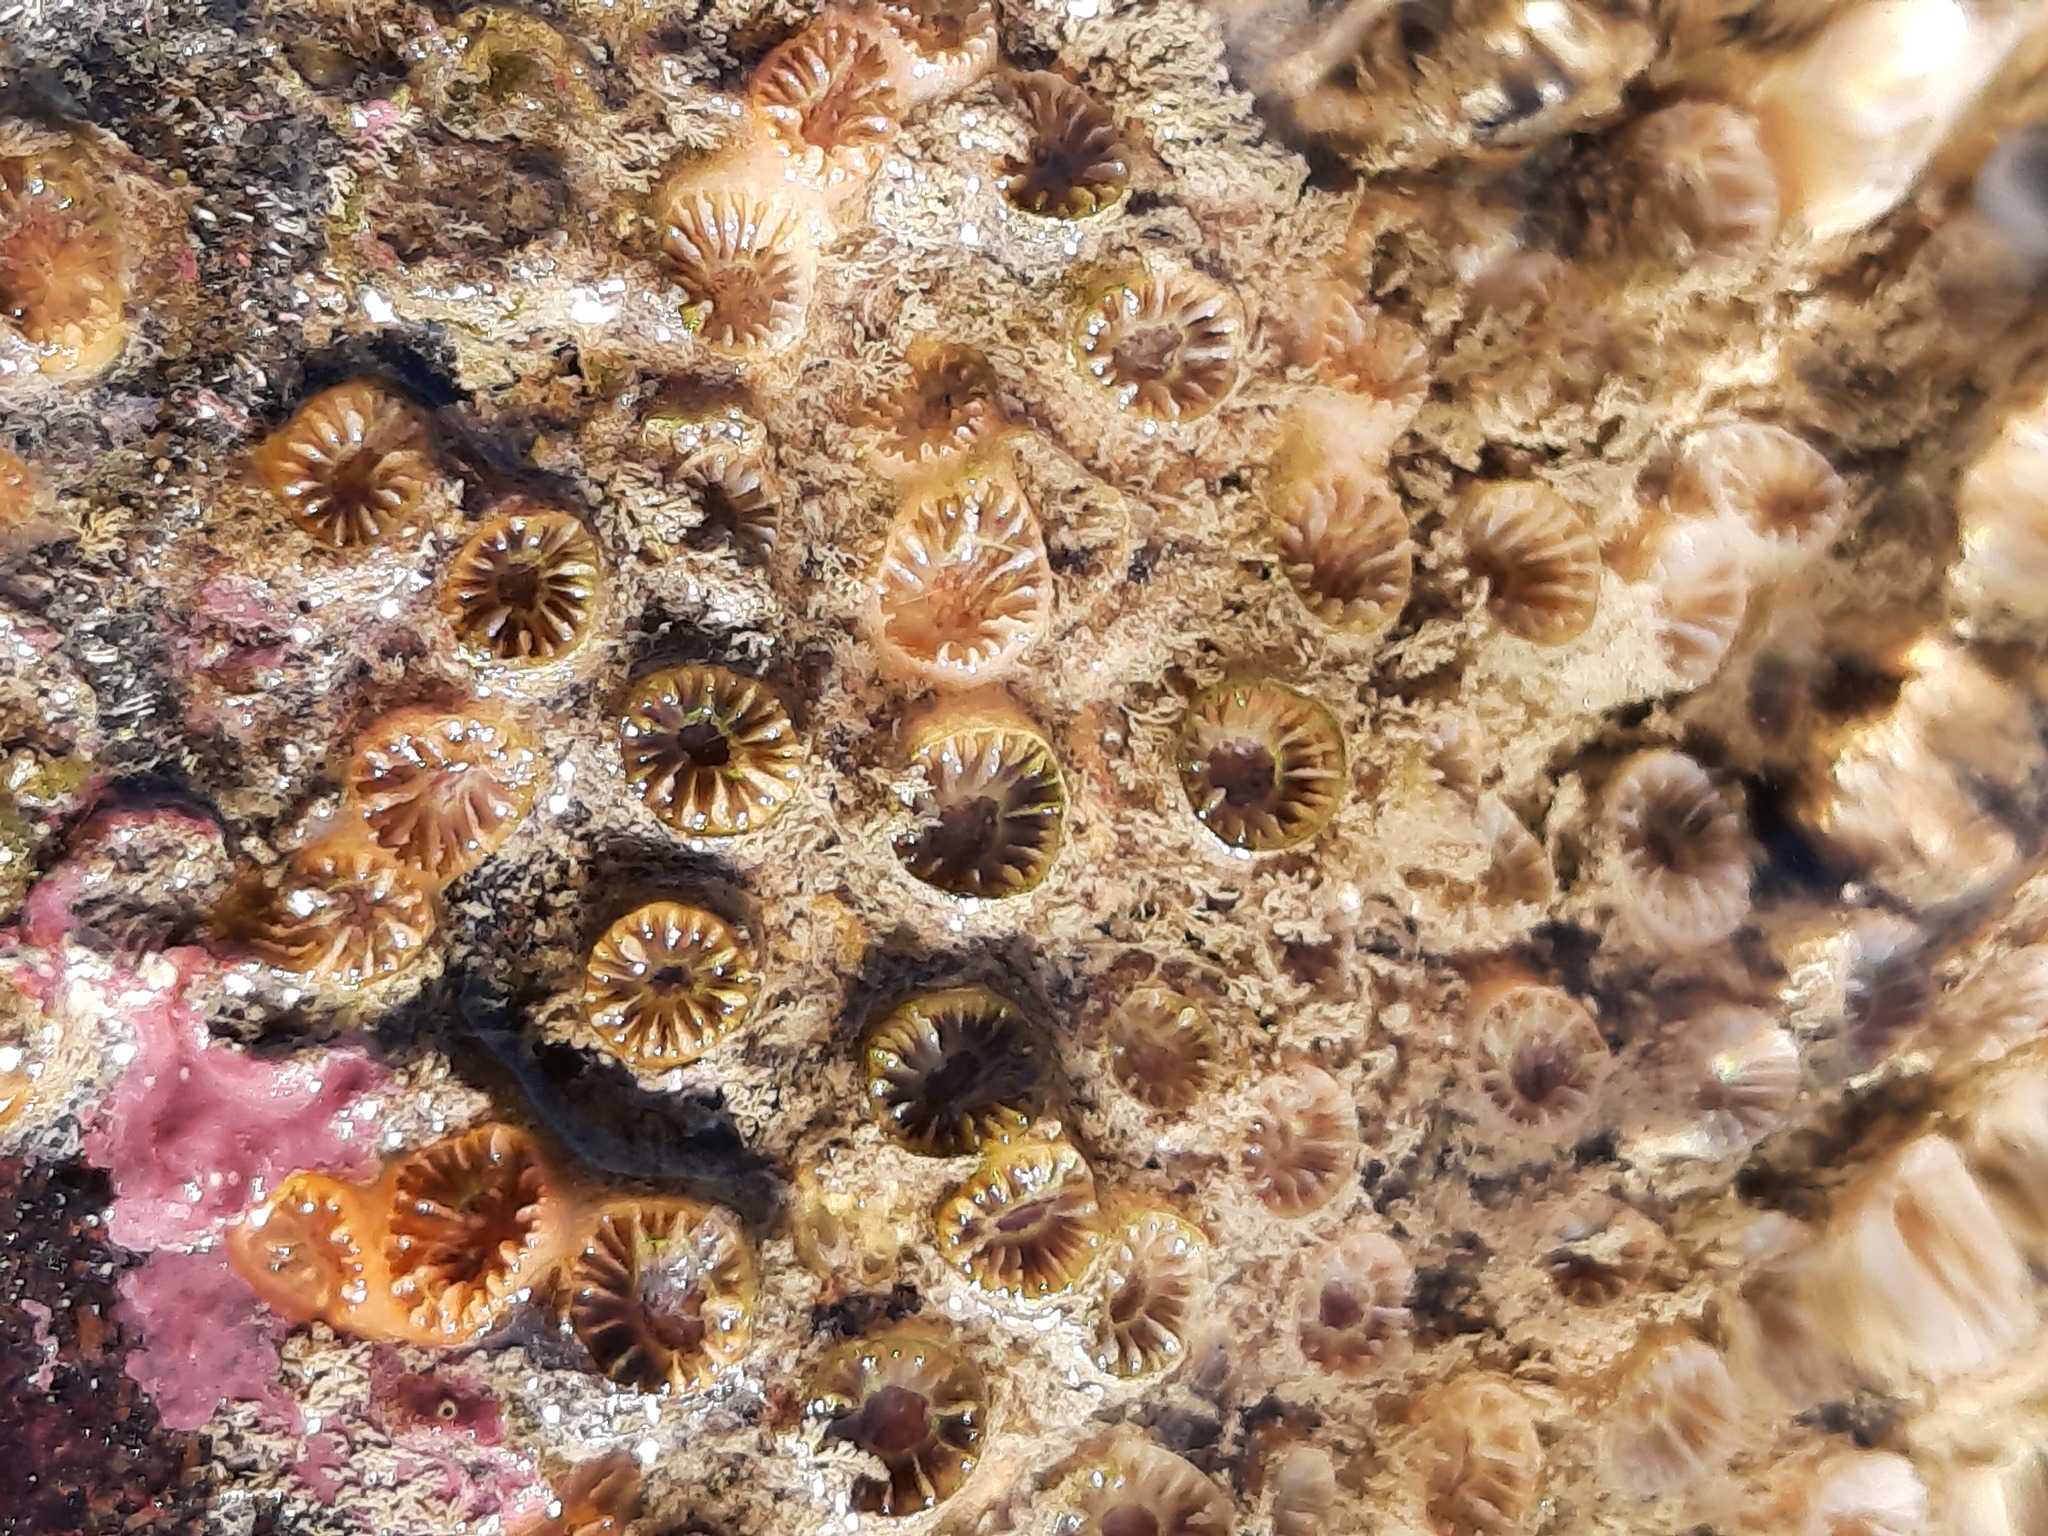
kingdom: Animalia
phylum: Cnidaria
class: Anthozoa
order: Scleractinia
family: Rhizangiidae
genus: Culicia
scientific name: Culicia rubeola
